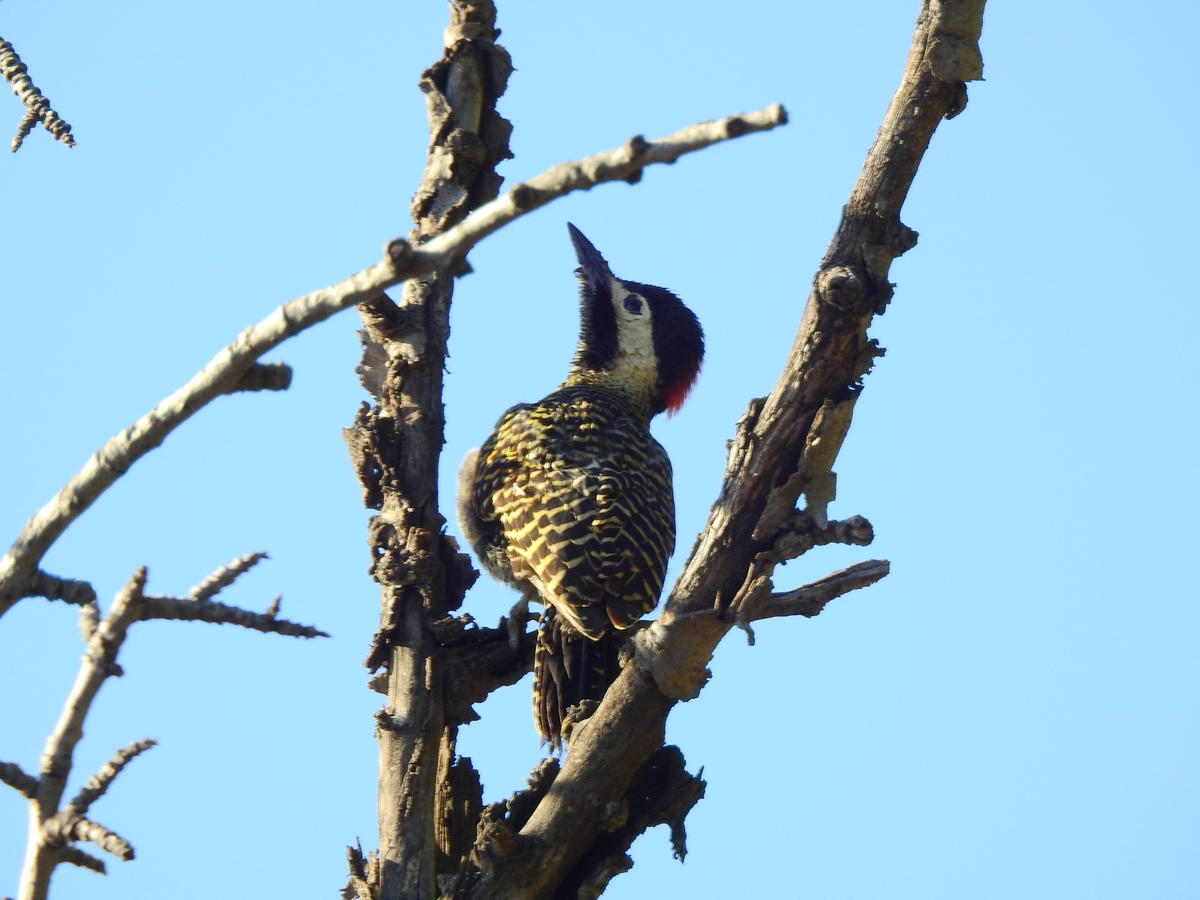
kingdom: Animalia
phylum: Chordata
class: Aves
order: Piciformes
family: Picidae
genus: Colaptes
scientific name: Colaptes melanochloros
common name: Green-barred woodpecker
